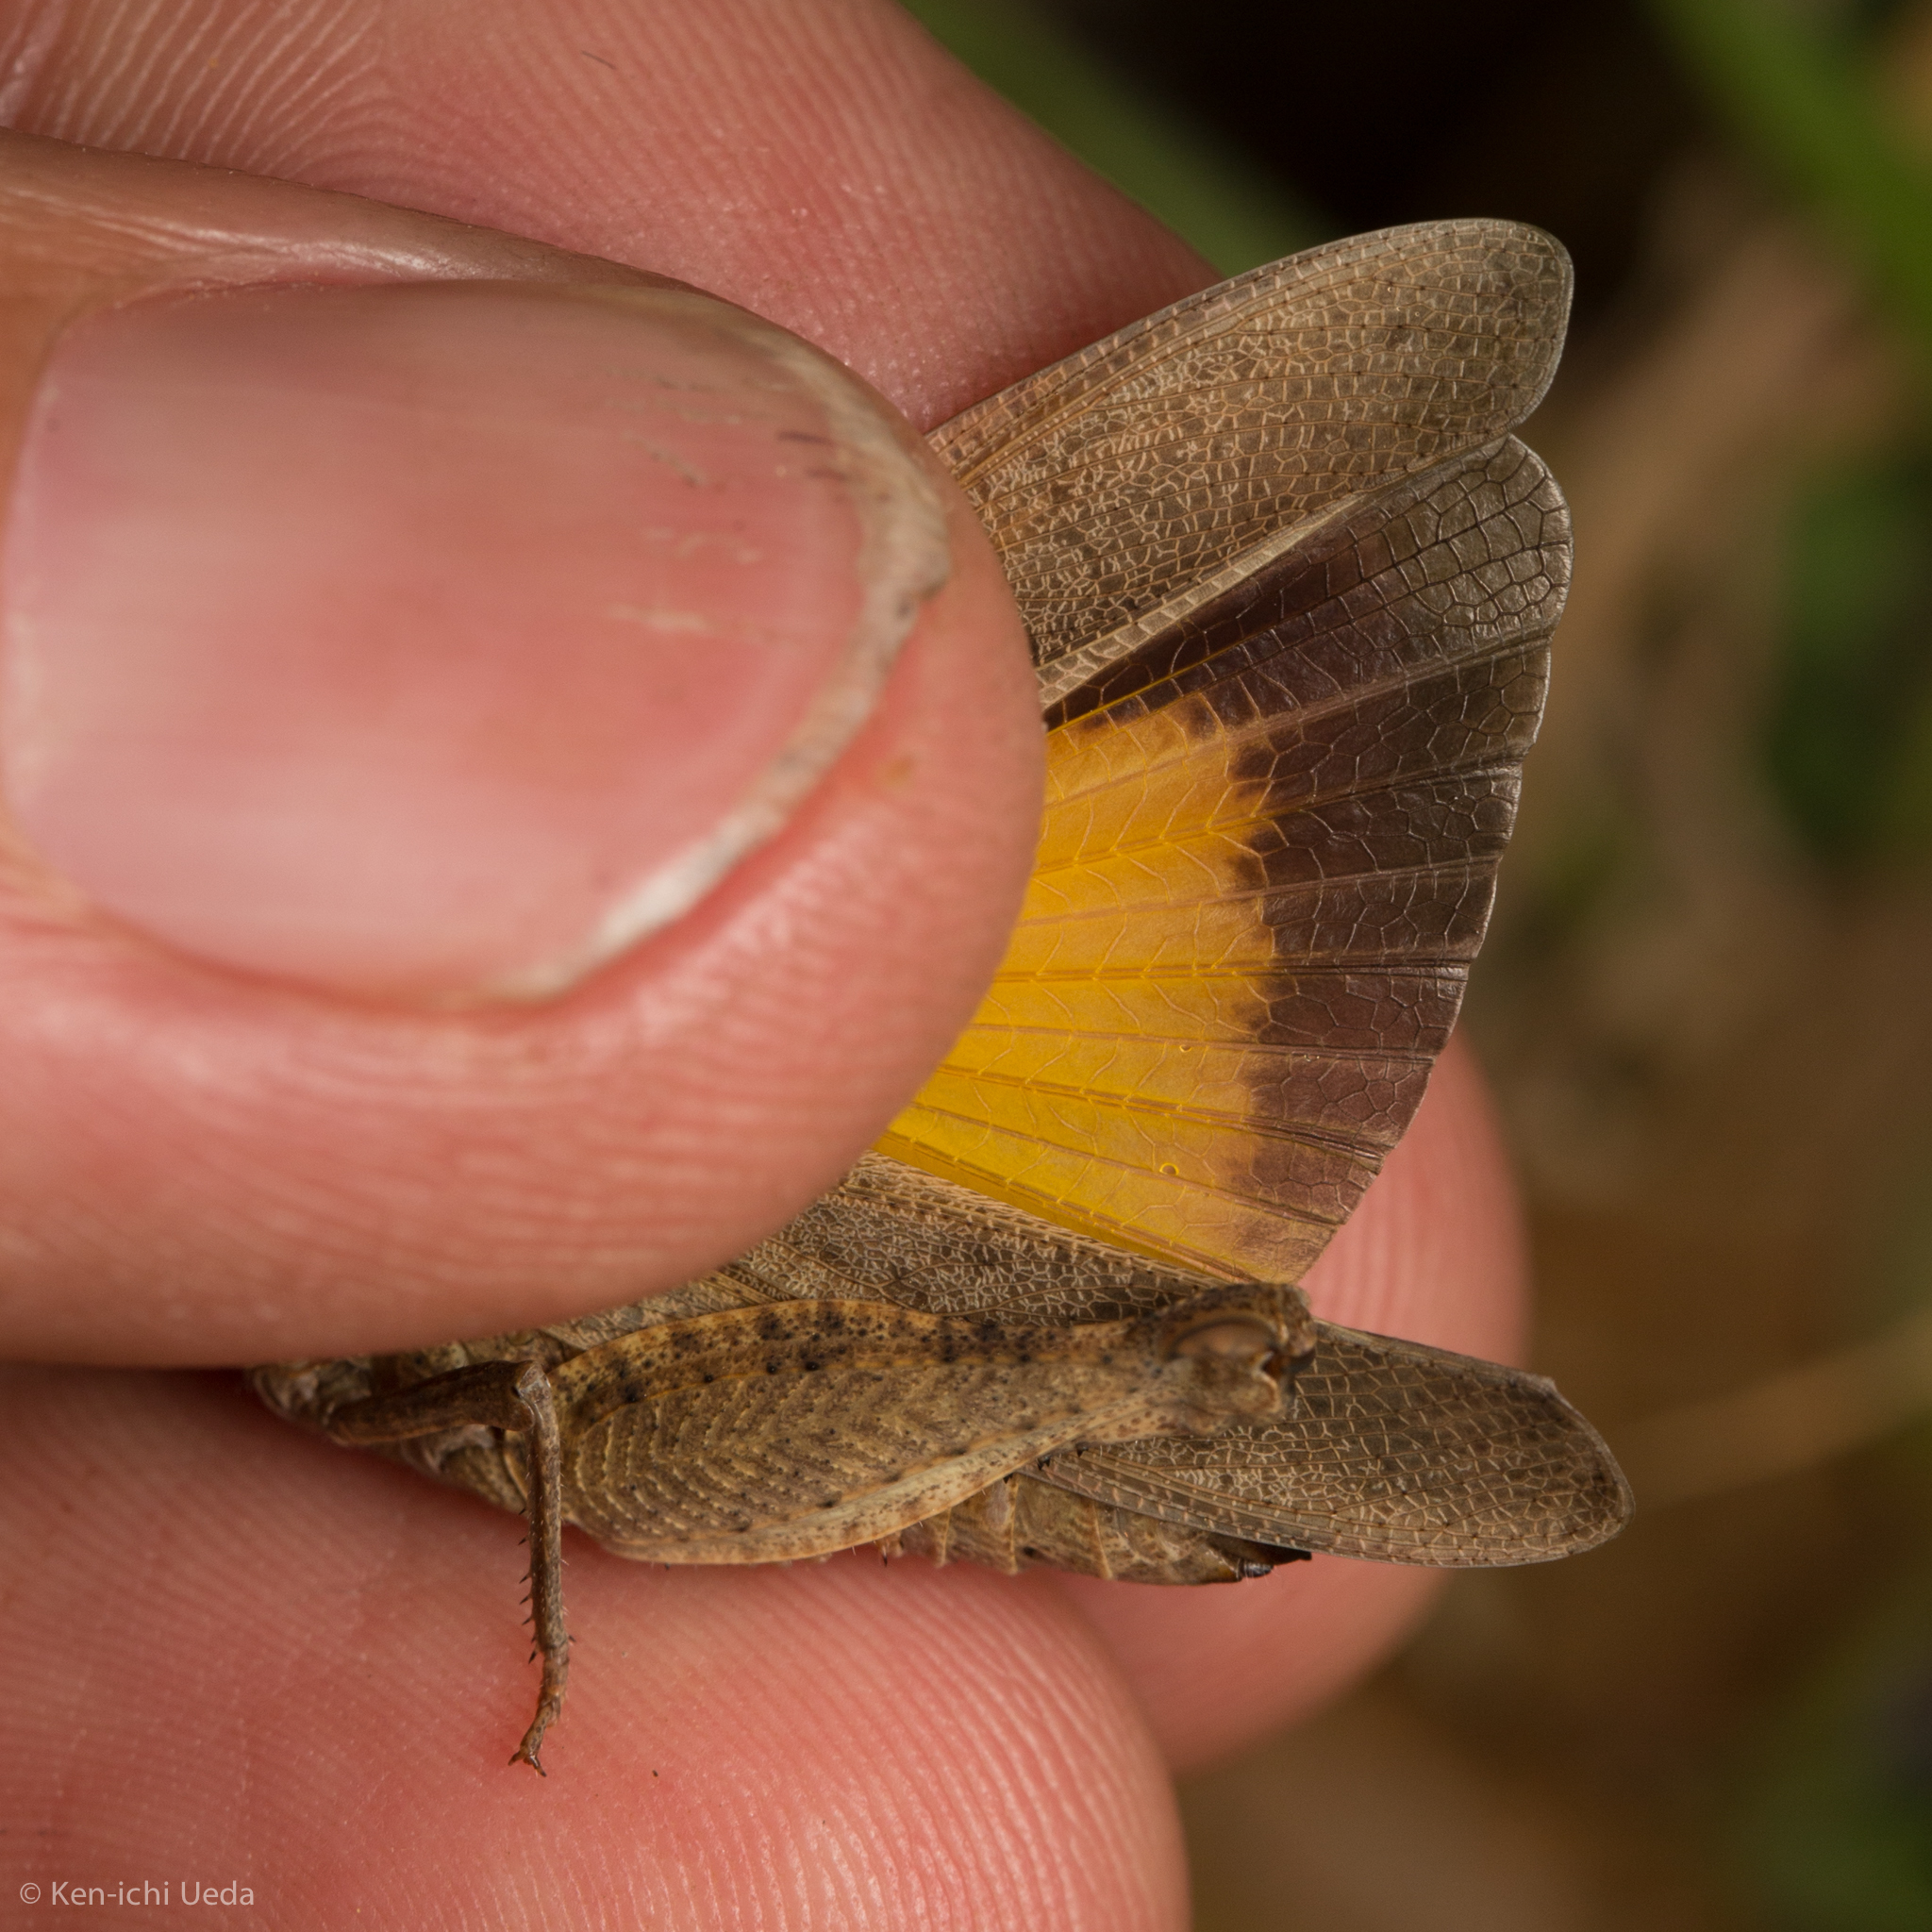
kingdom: Animalia
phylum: Arthropoda
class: Insecta
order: Orthoptera
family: Acrididae
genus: Arphia
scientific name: Arphia behrensi
